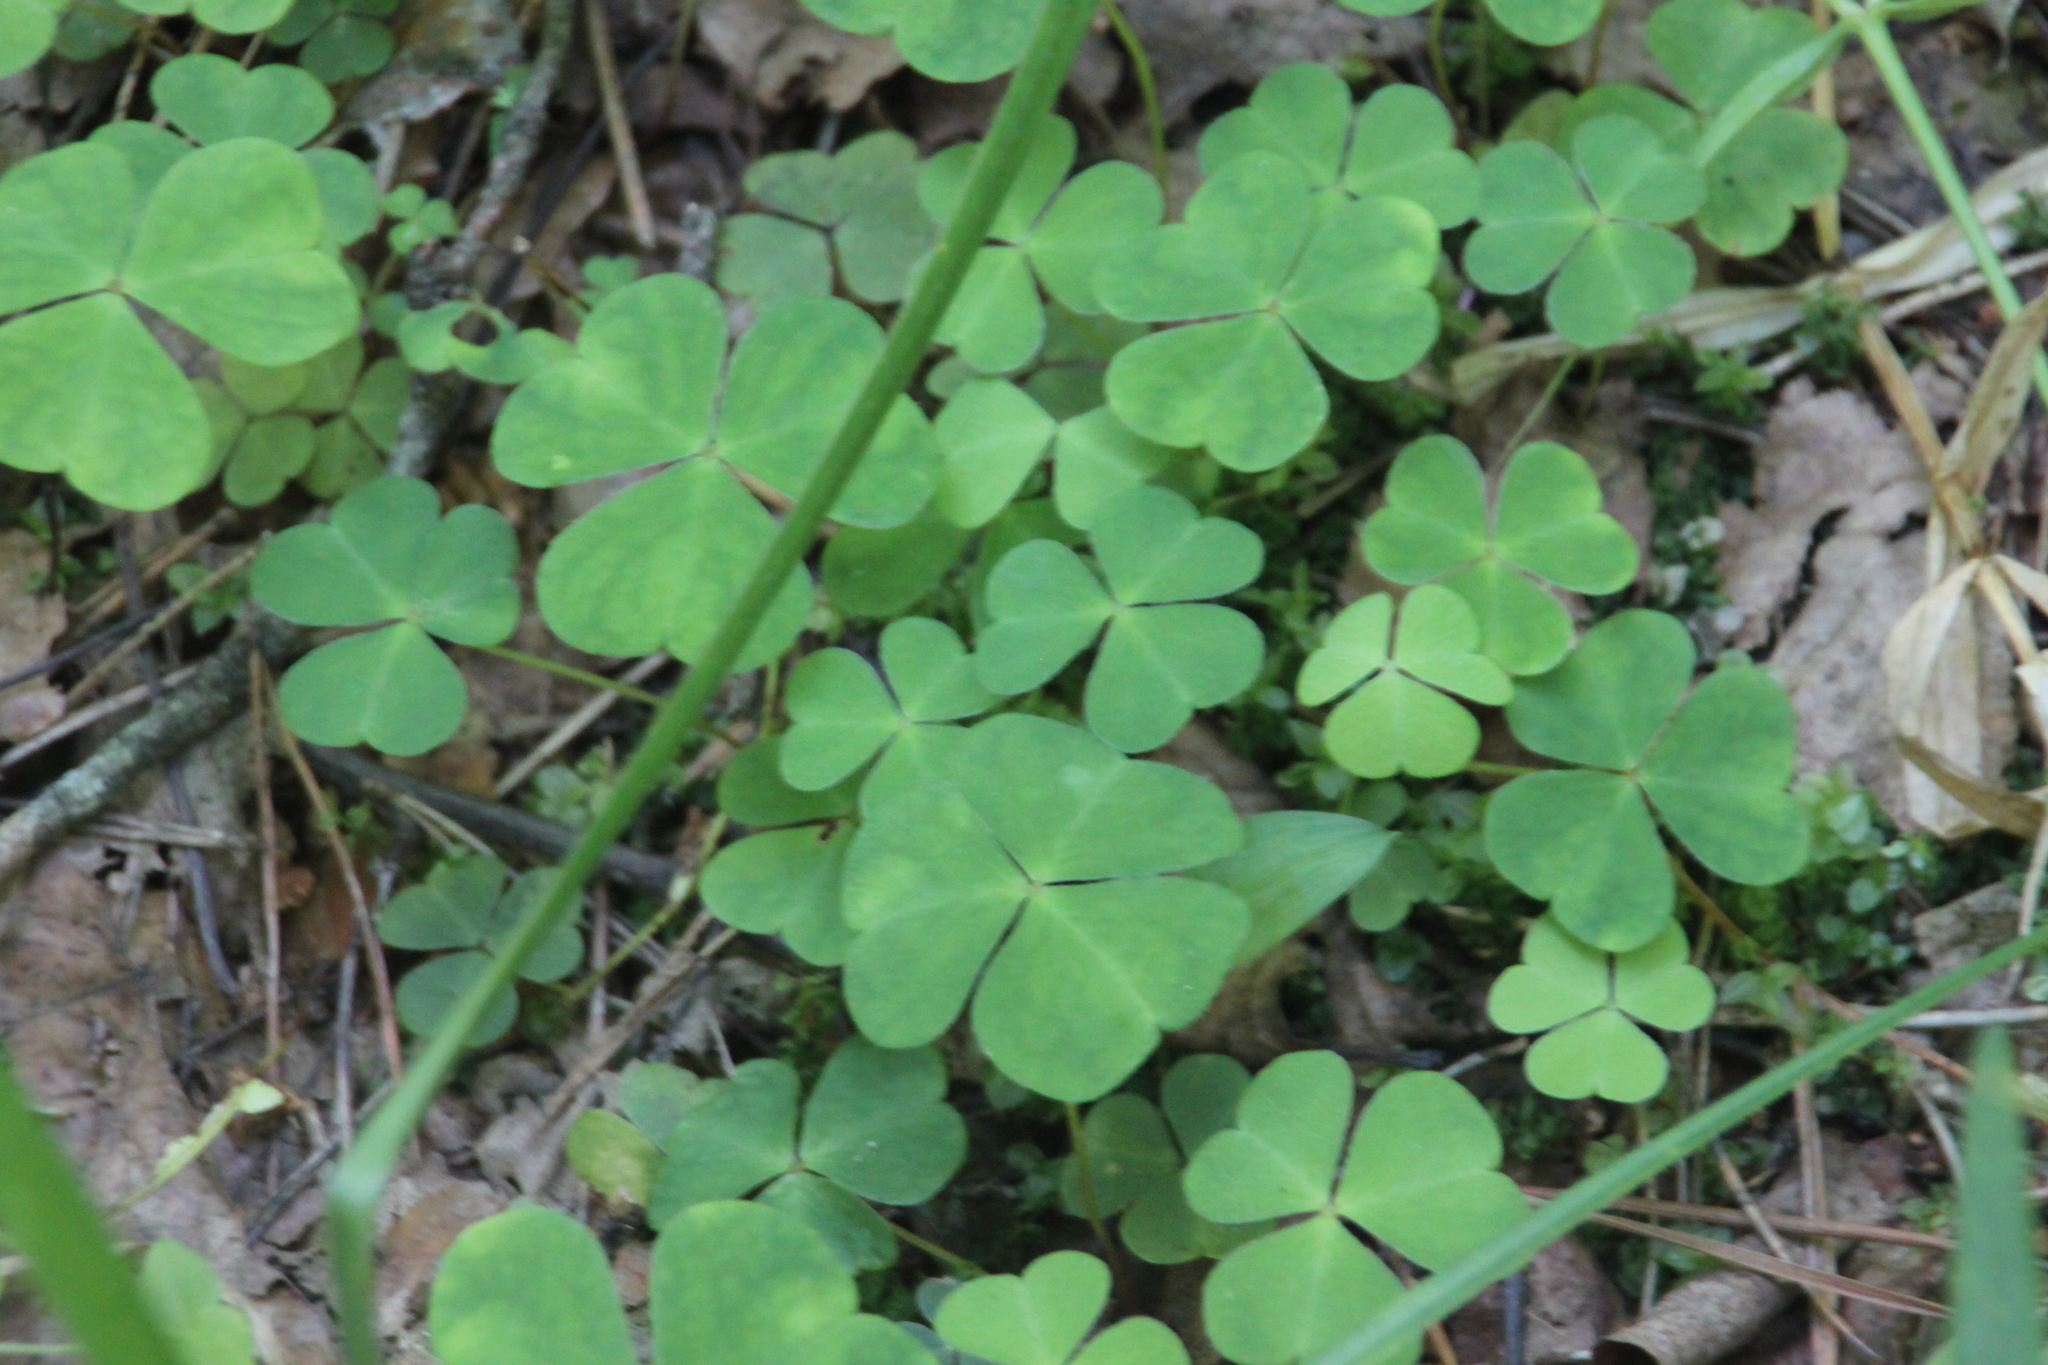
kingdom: Plantae
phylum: Tracheophyta
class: Magnoliopsida
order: Oxalidales
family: Oxalidaceae
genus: Oxalis
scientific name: Oxalis acetosella
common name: Wood-sorrel
